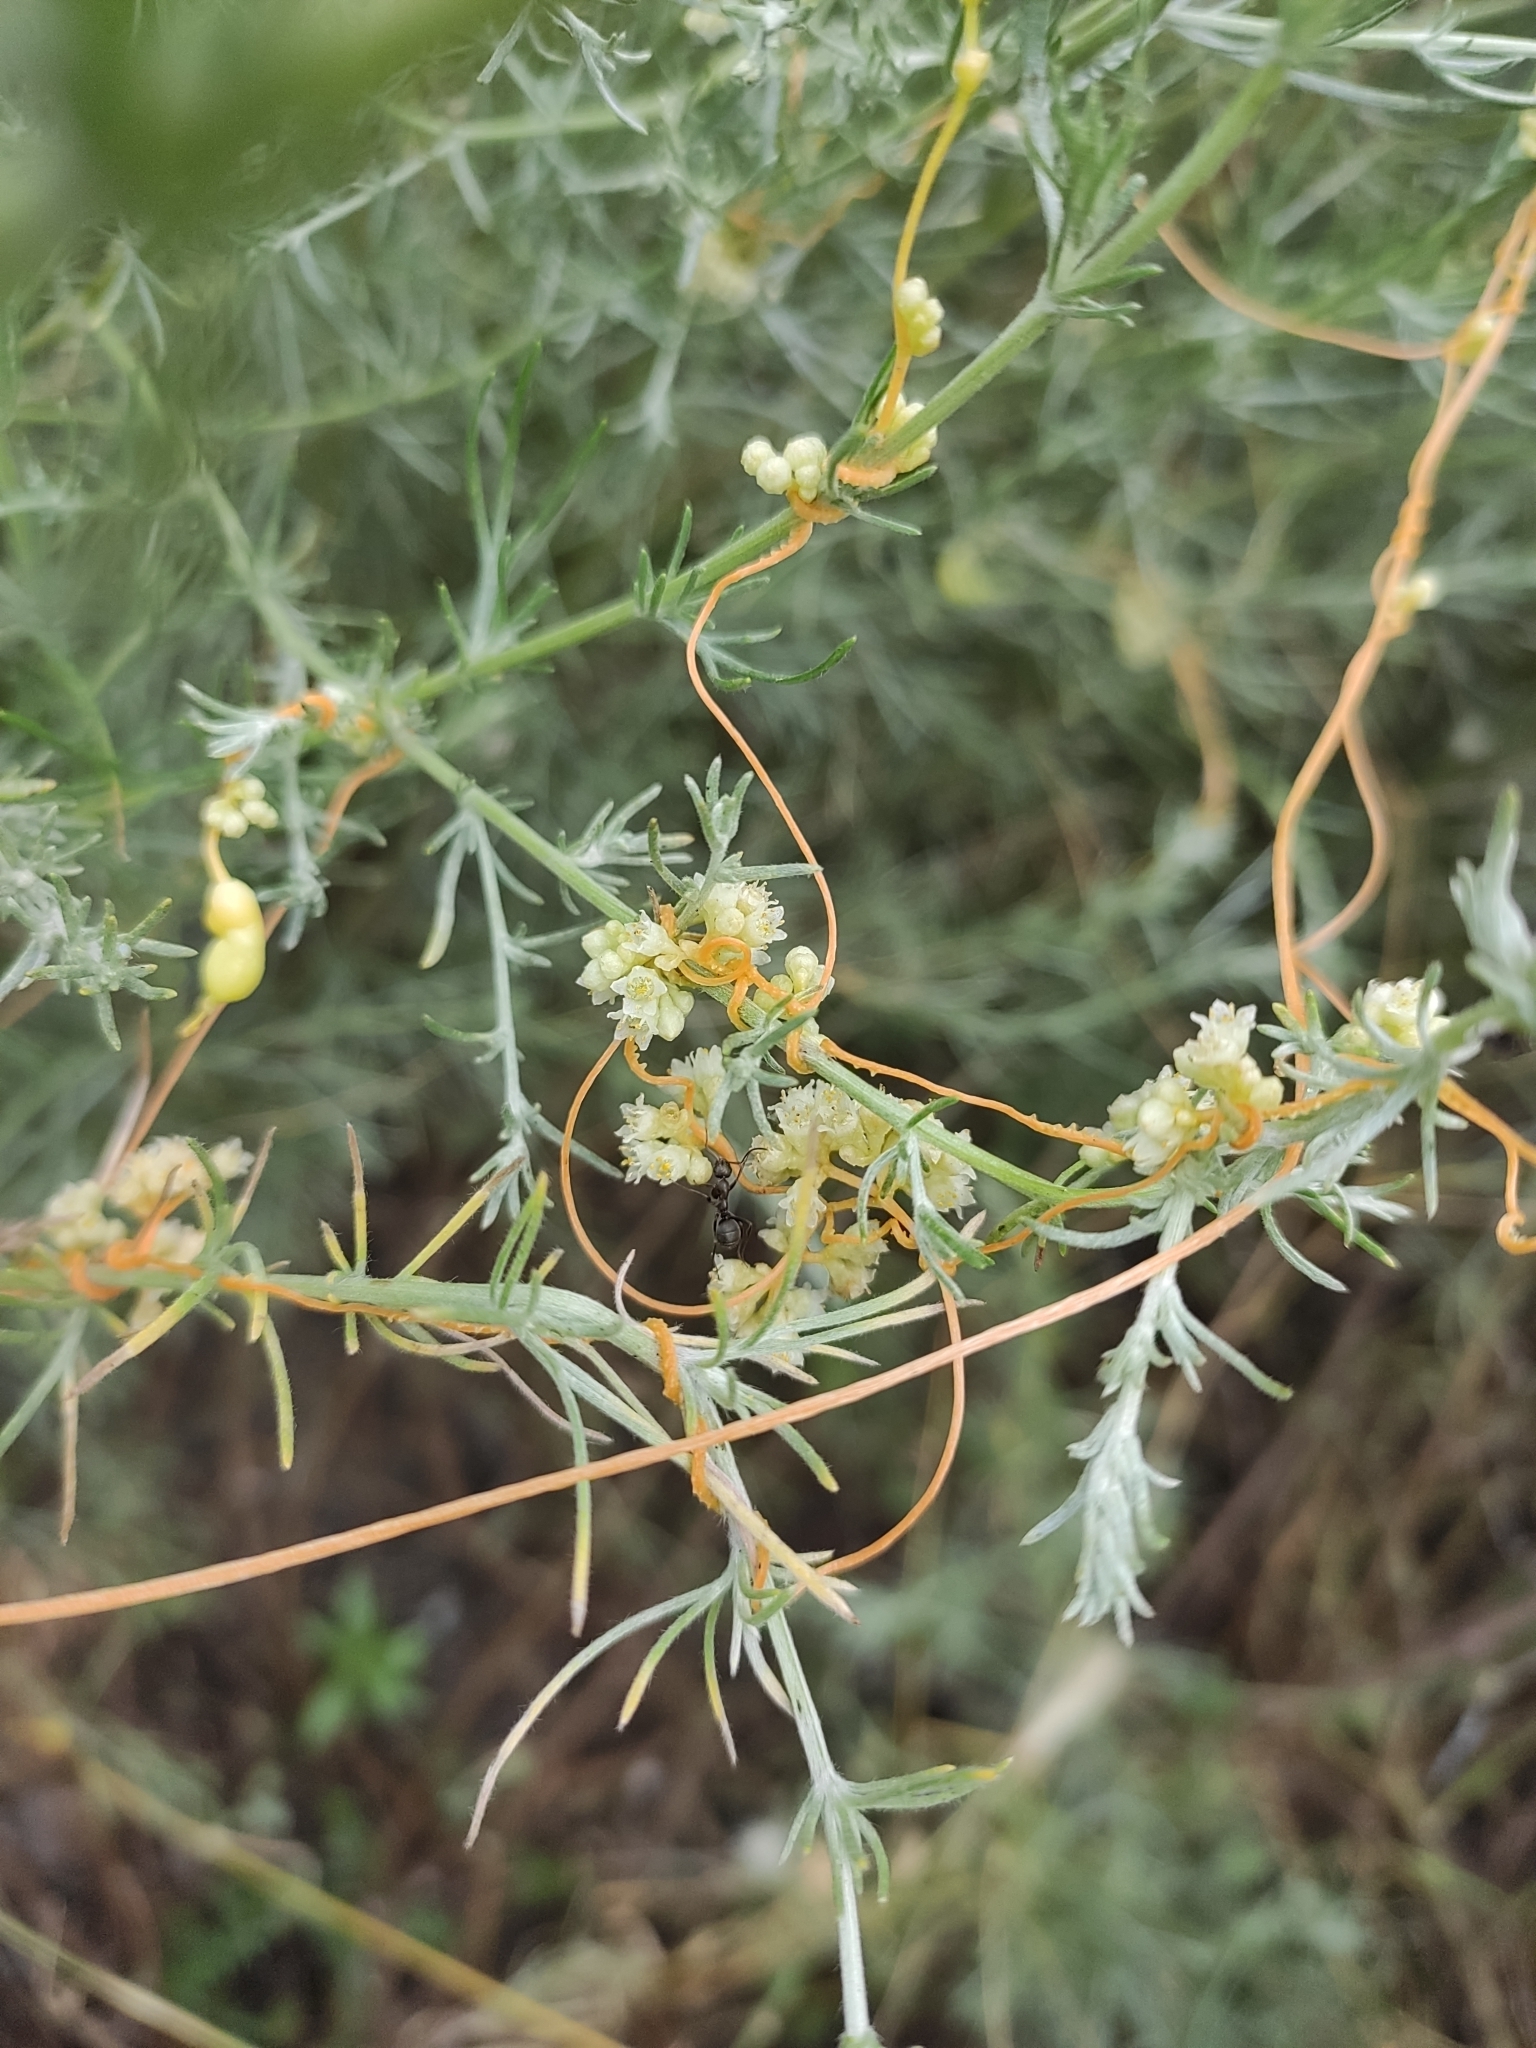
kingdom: Plantae
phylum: Tracheophyta
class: Magnoliopsida
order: Solanales
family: Convolvulaceae
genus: Cuscuta
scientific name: Cuscuta campestris
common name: Yellow dodder
